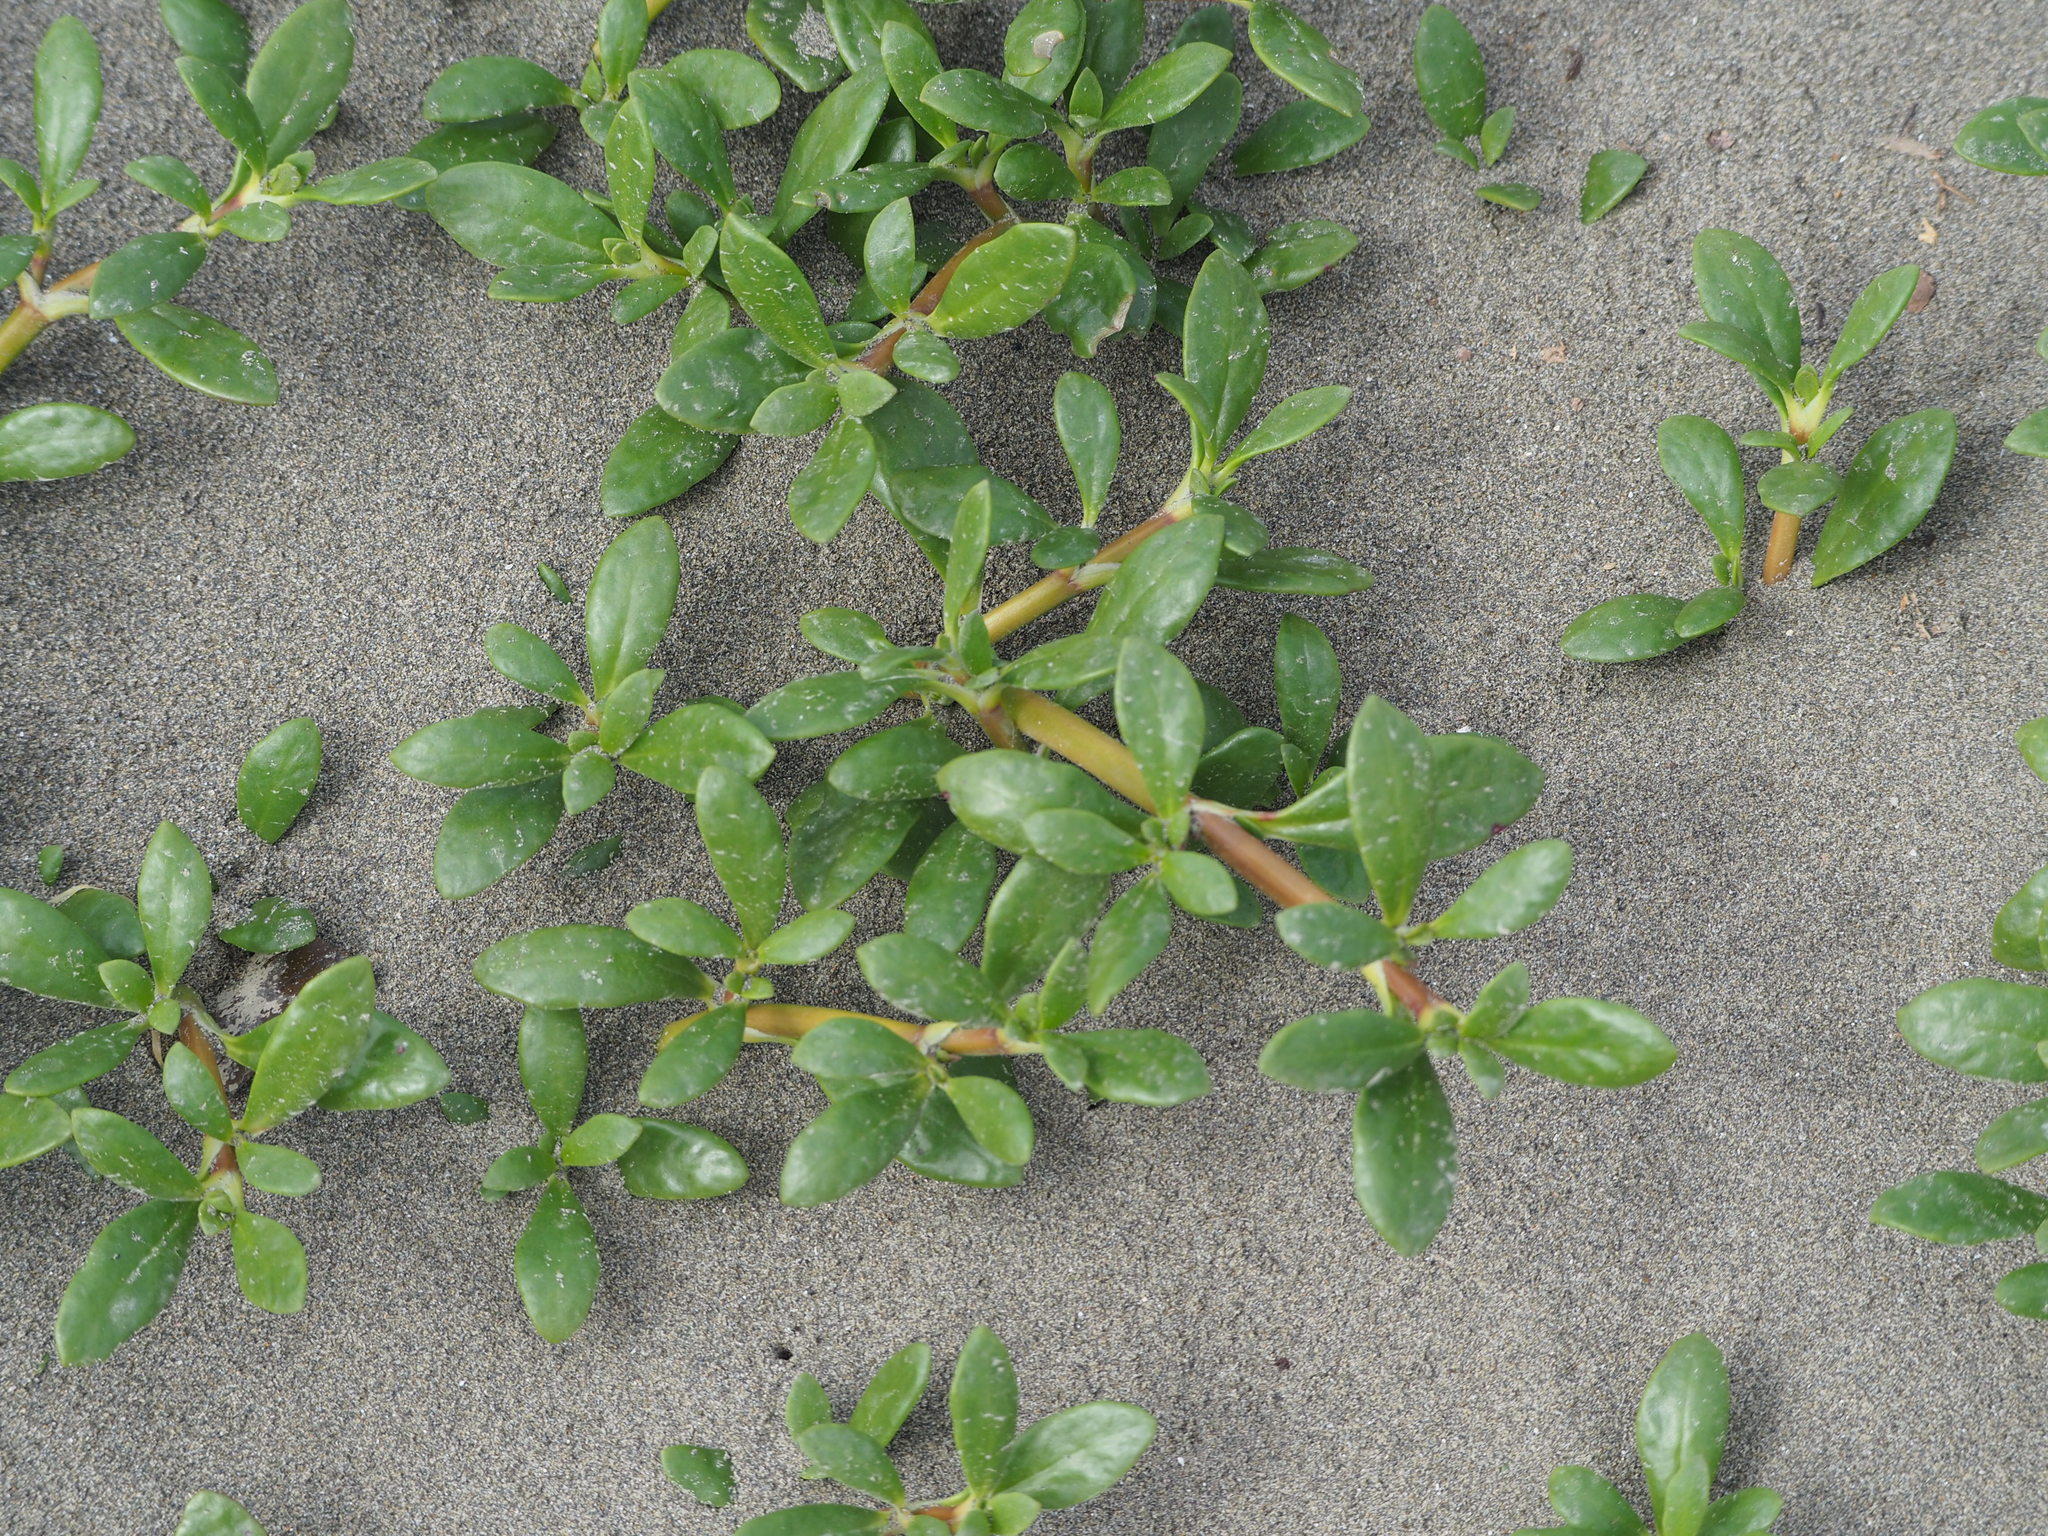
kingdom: Plantae
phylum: Tracheophyta
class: Magnoliopsida
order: Caryophyllales
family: Aizoaceae
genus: Sesuvium
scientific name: Sesuvium portulacastrum
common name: Sea-purslane
